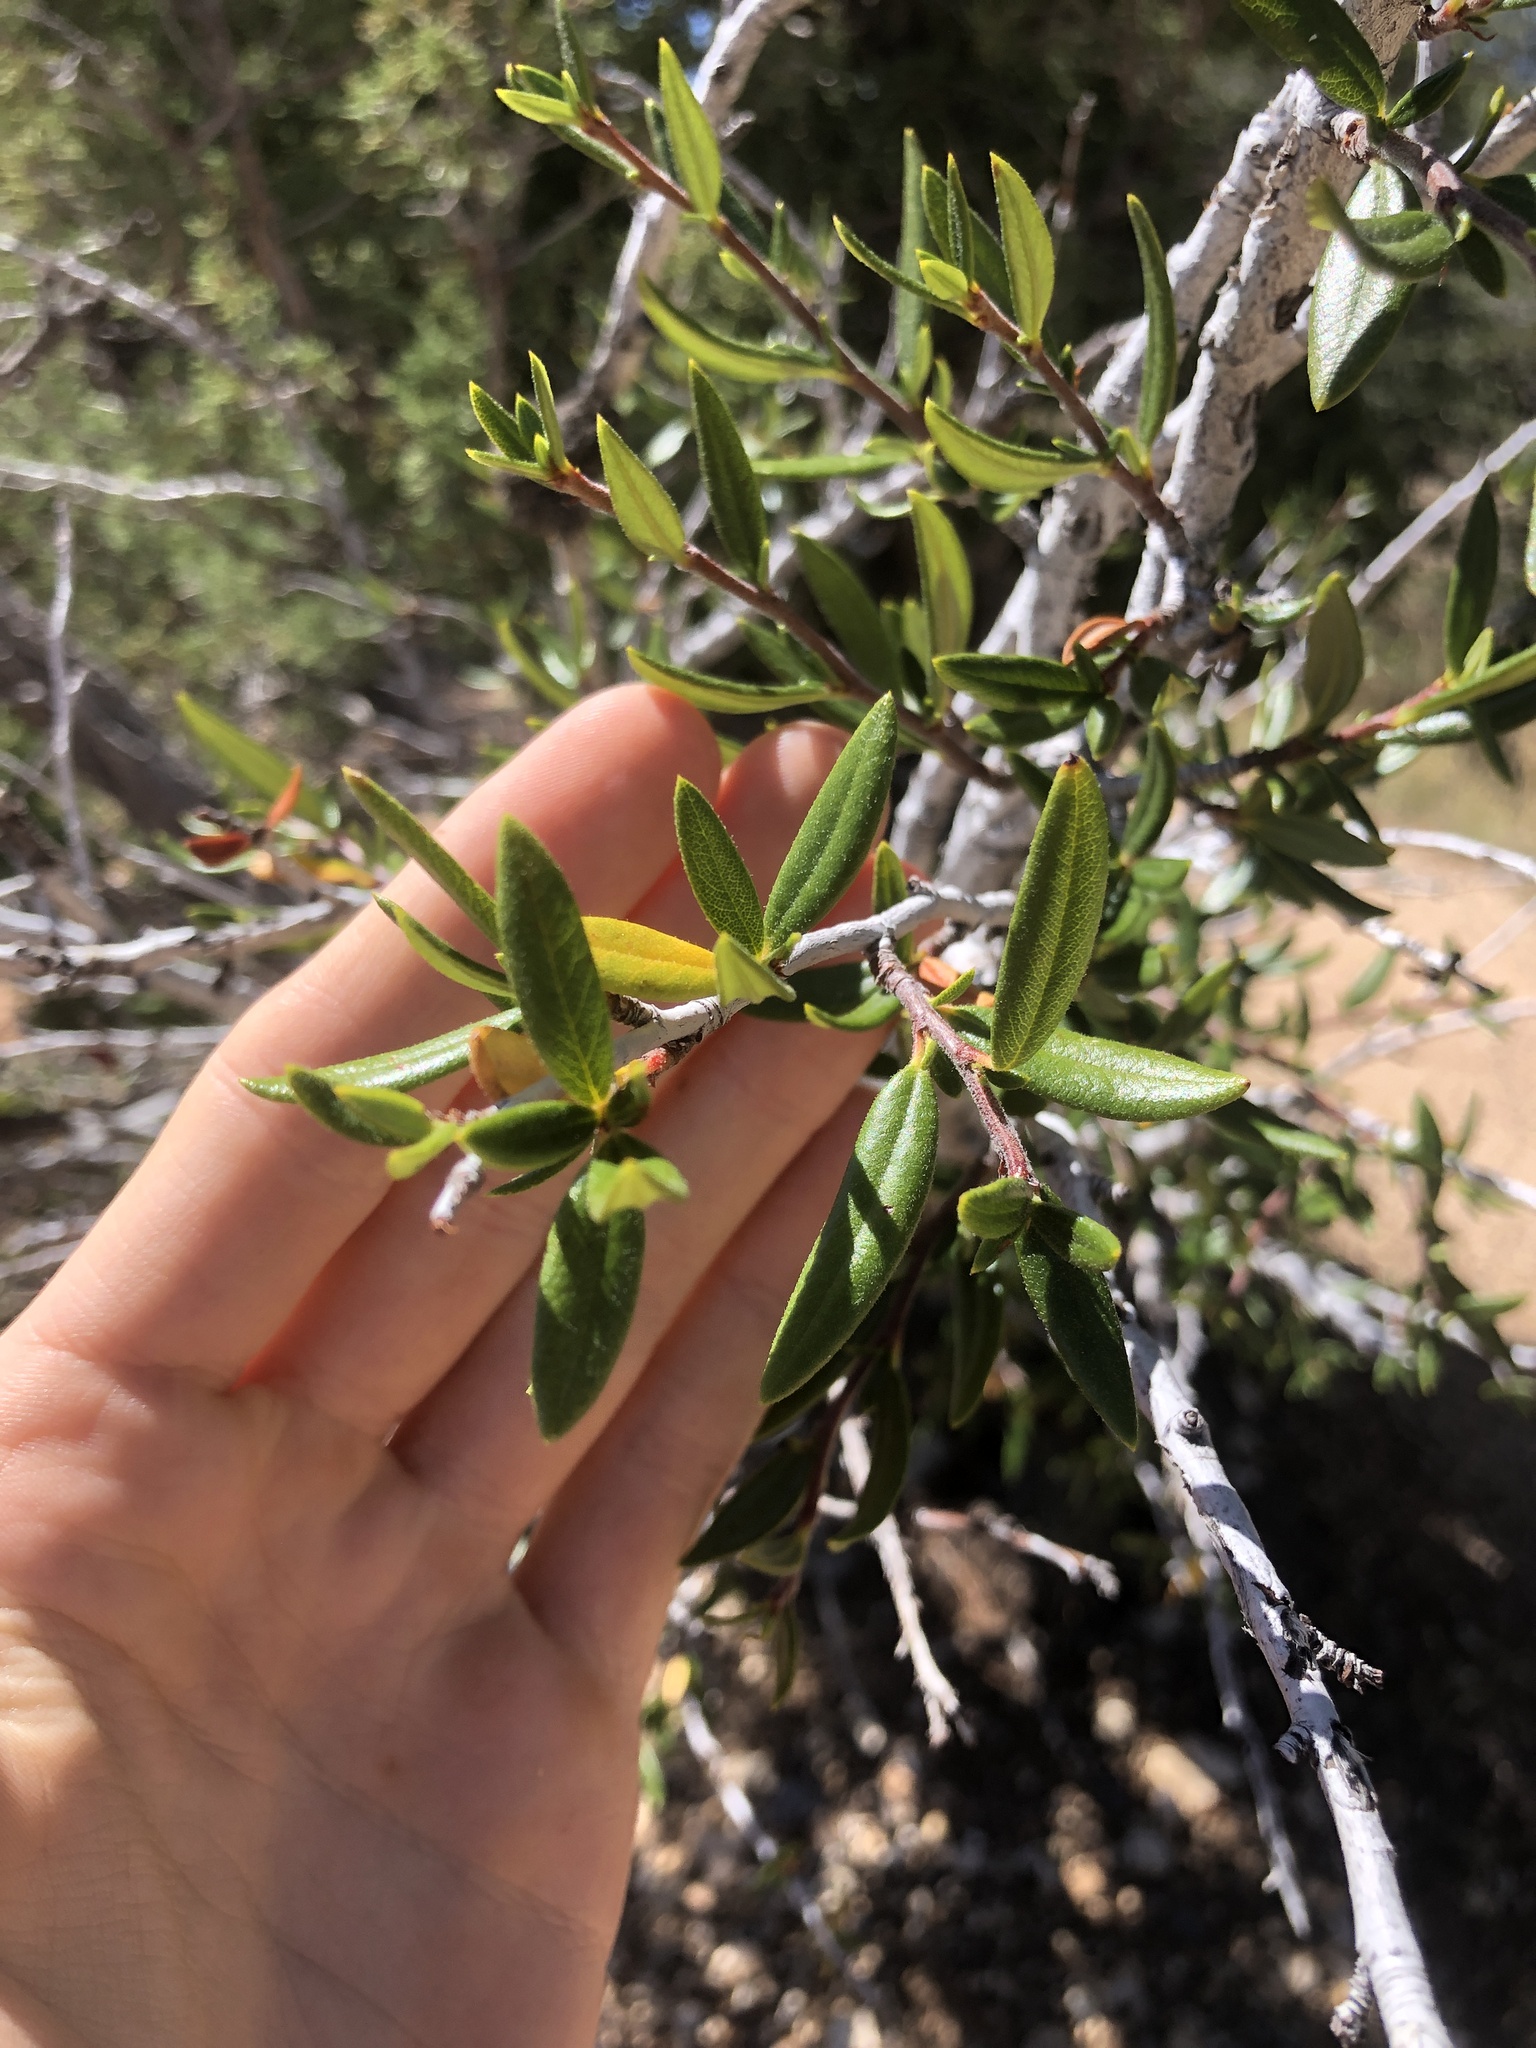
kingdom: Plantae
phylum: Tracheophyta
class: Magnoliopsida
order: Rosales
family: Rosaceae
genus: Cercocarpus
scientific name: Cercocarpus ledifolius
